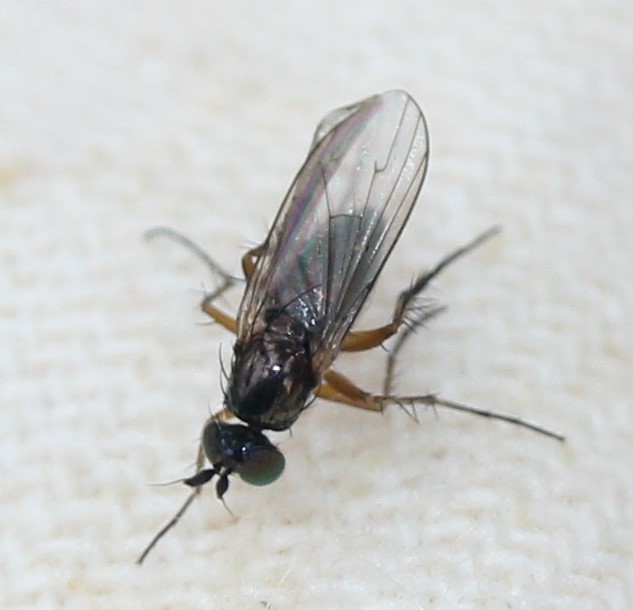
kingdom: Animalia
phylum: Arthropoda
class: Insecta
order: Diptera
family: Dolichopodidae
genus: Dolichopus
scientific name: Dolichopus ramifer
